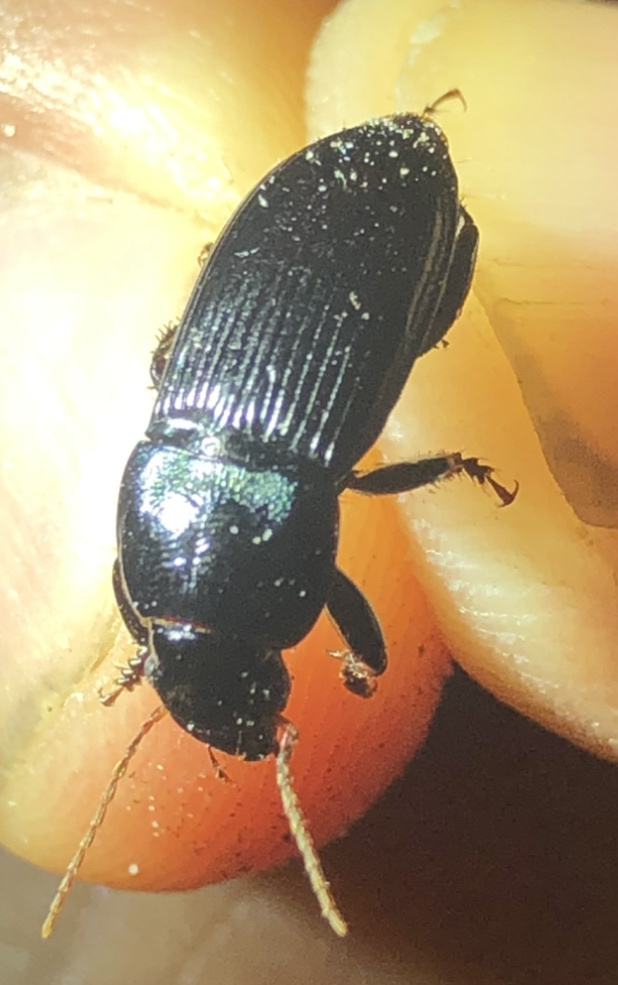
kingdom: Animalia
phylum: Arthropoda
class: Insecta
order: Coleoptera
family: Carabidae
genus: Harpalus
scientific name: Harpalus dimidiatus
